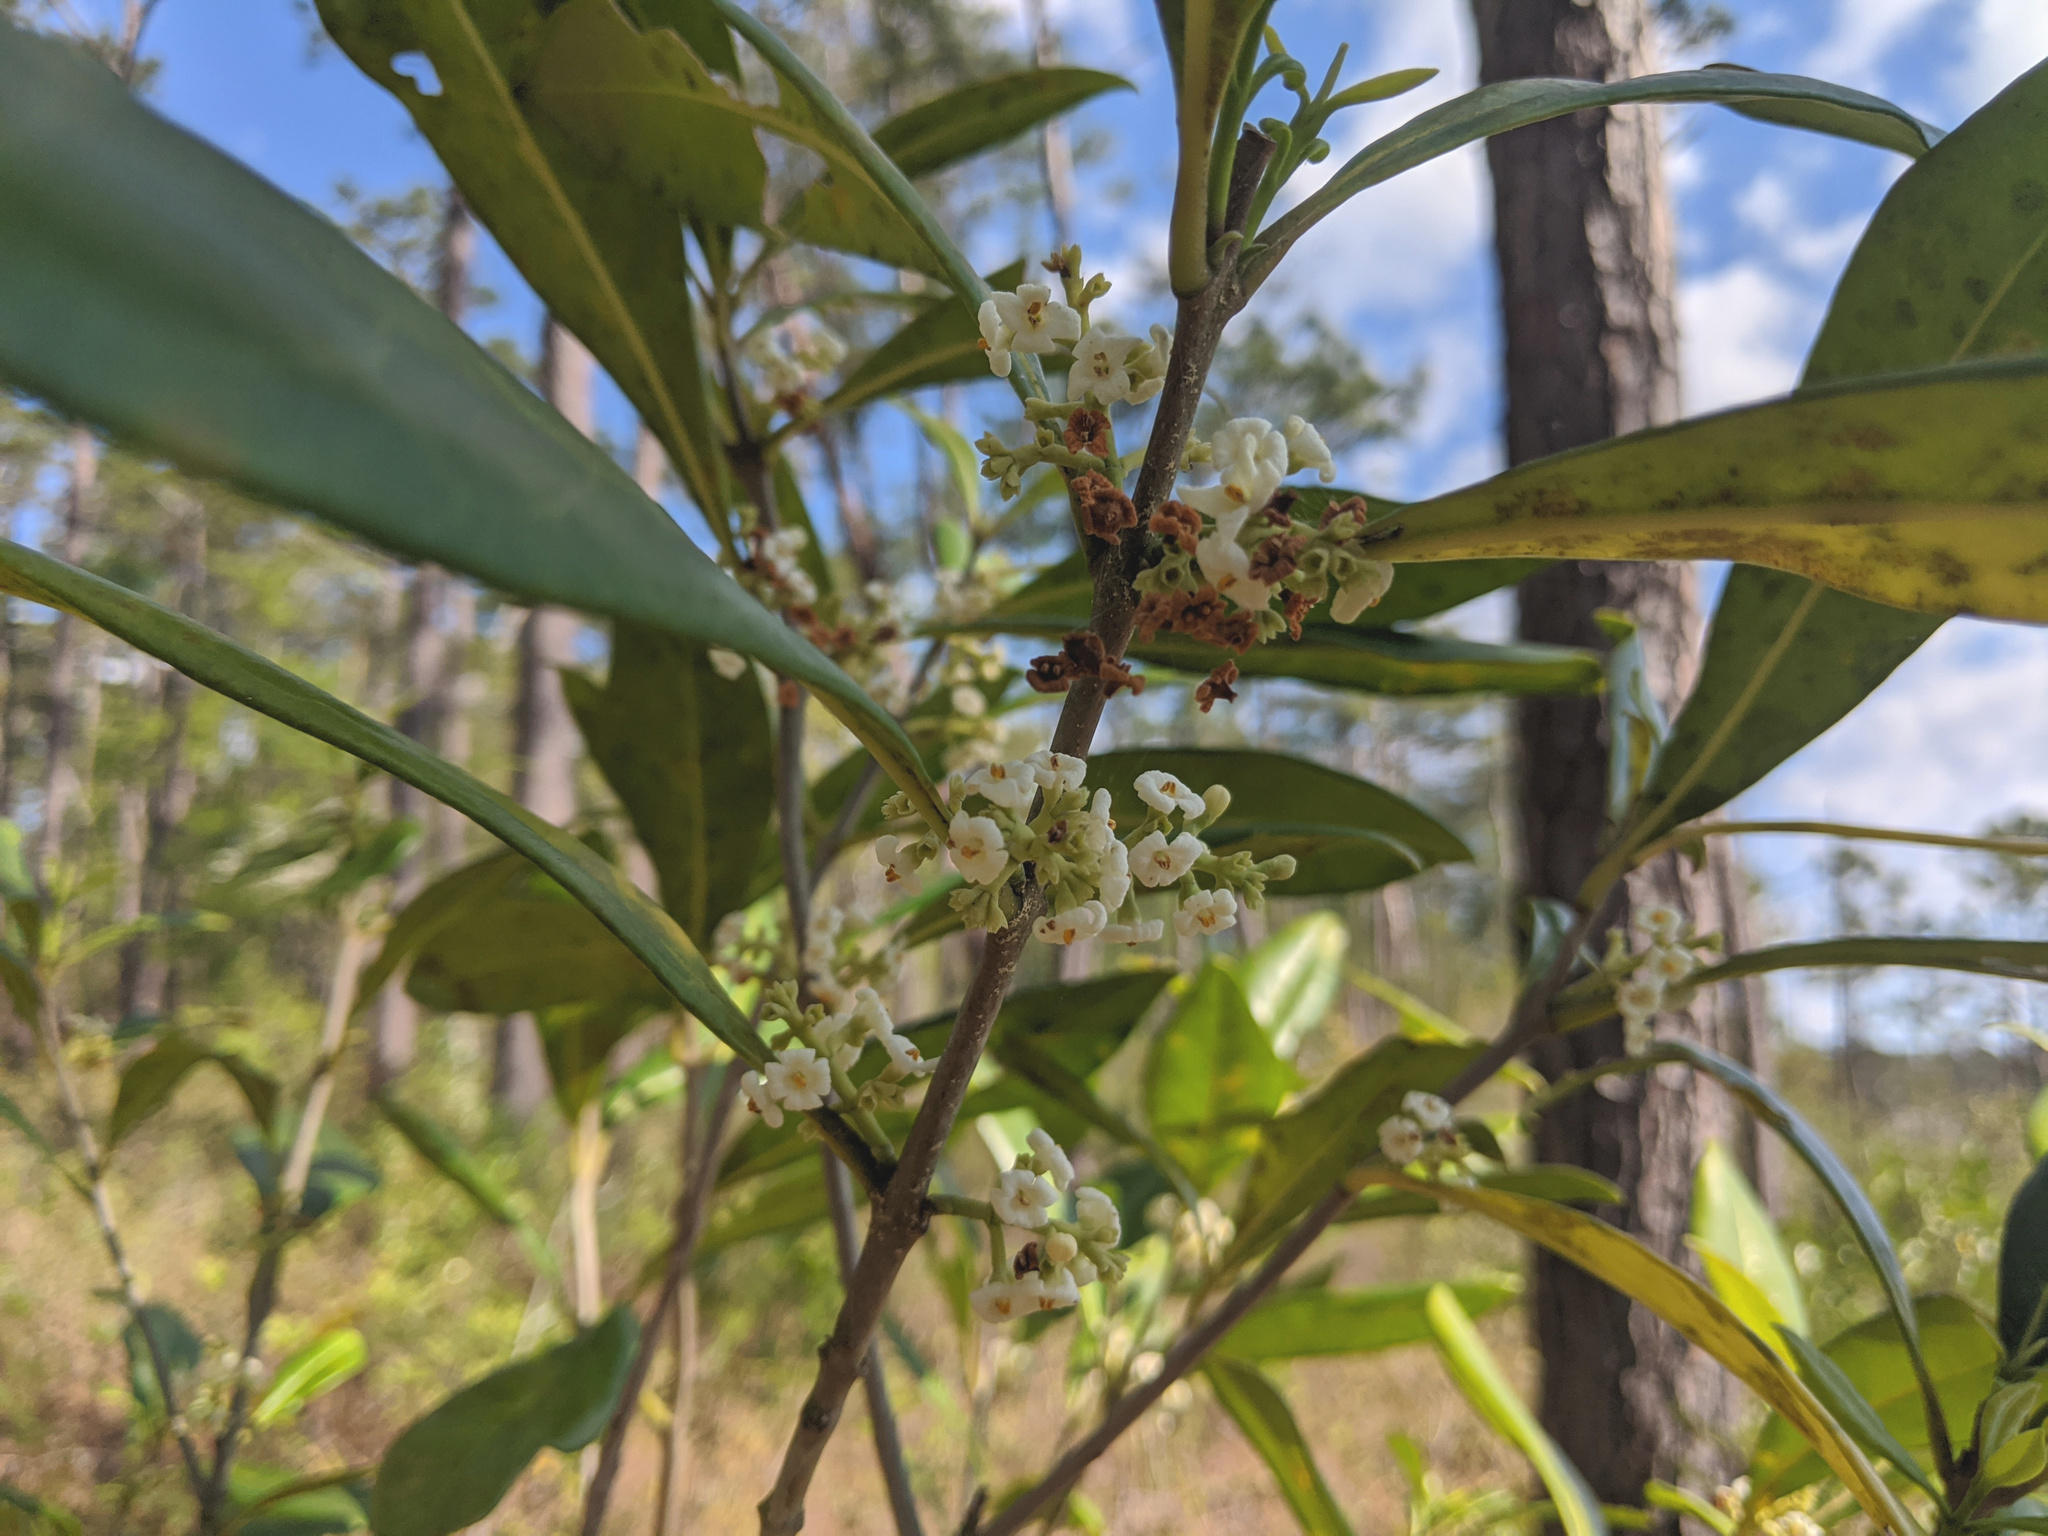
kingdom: Plantae
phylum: Tracheophyta
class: Magnoliopsida
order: Lamiales
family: Oleaceae
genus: Cartrema
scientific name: Cartrema americana
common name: Devilwood
